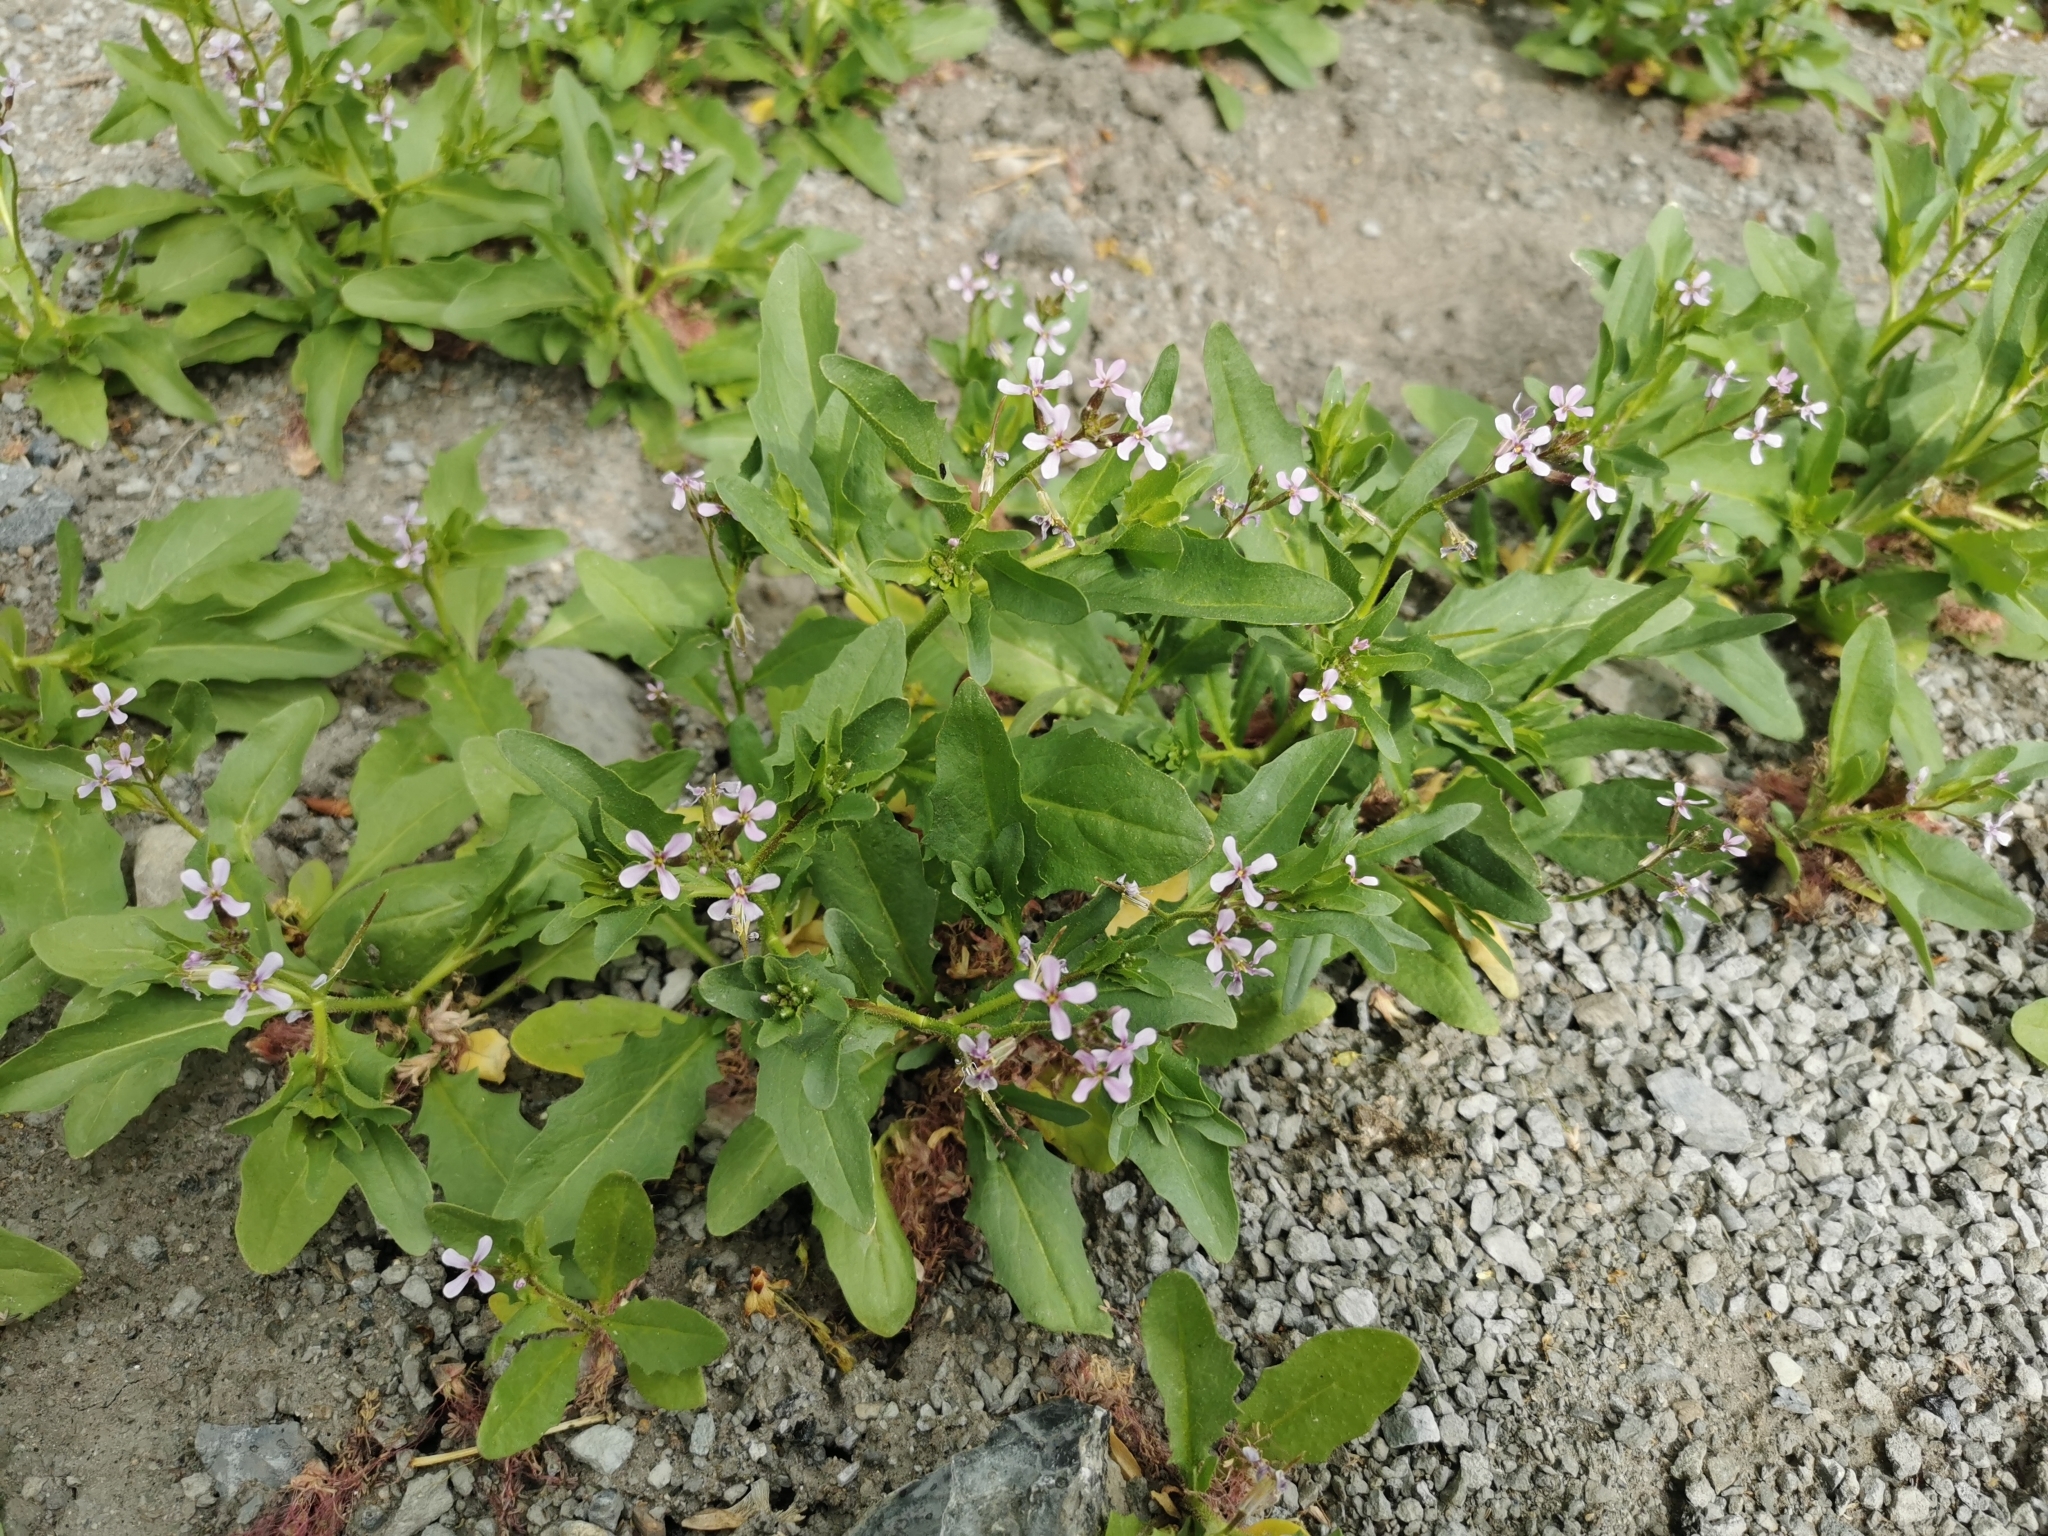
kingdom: Plantae
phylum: Tracheophyta
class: Magnoliopsida
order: Brassicales
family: Brassicaceae
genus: Chorispora
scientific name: Chorispora tenella
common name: Crossflower
